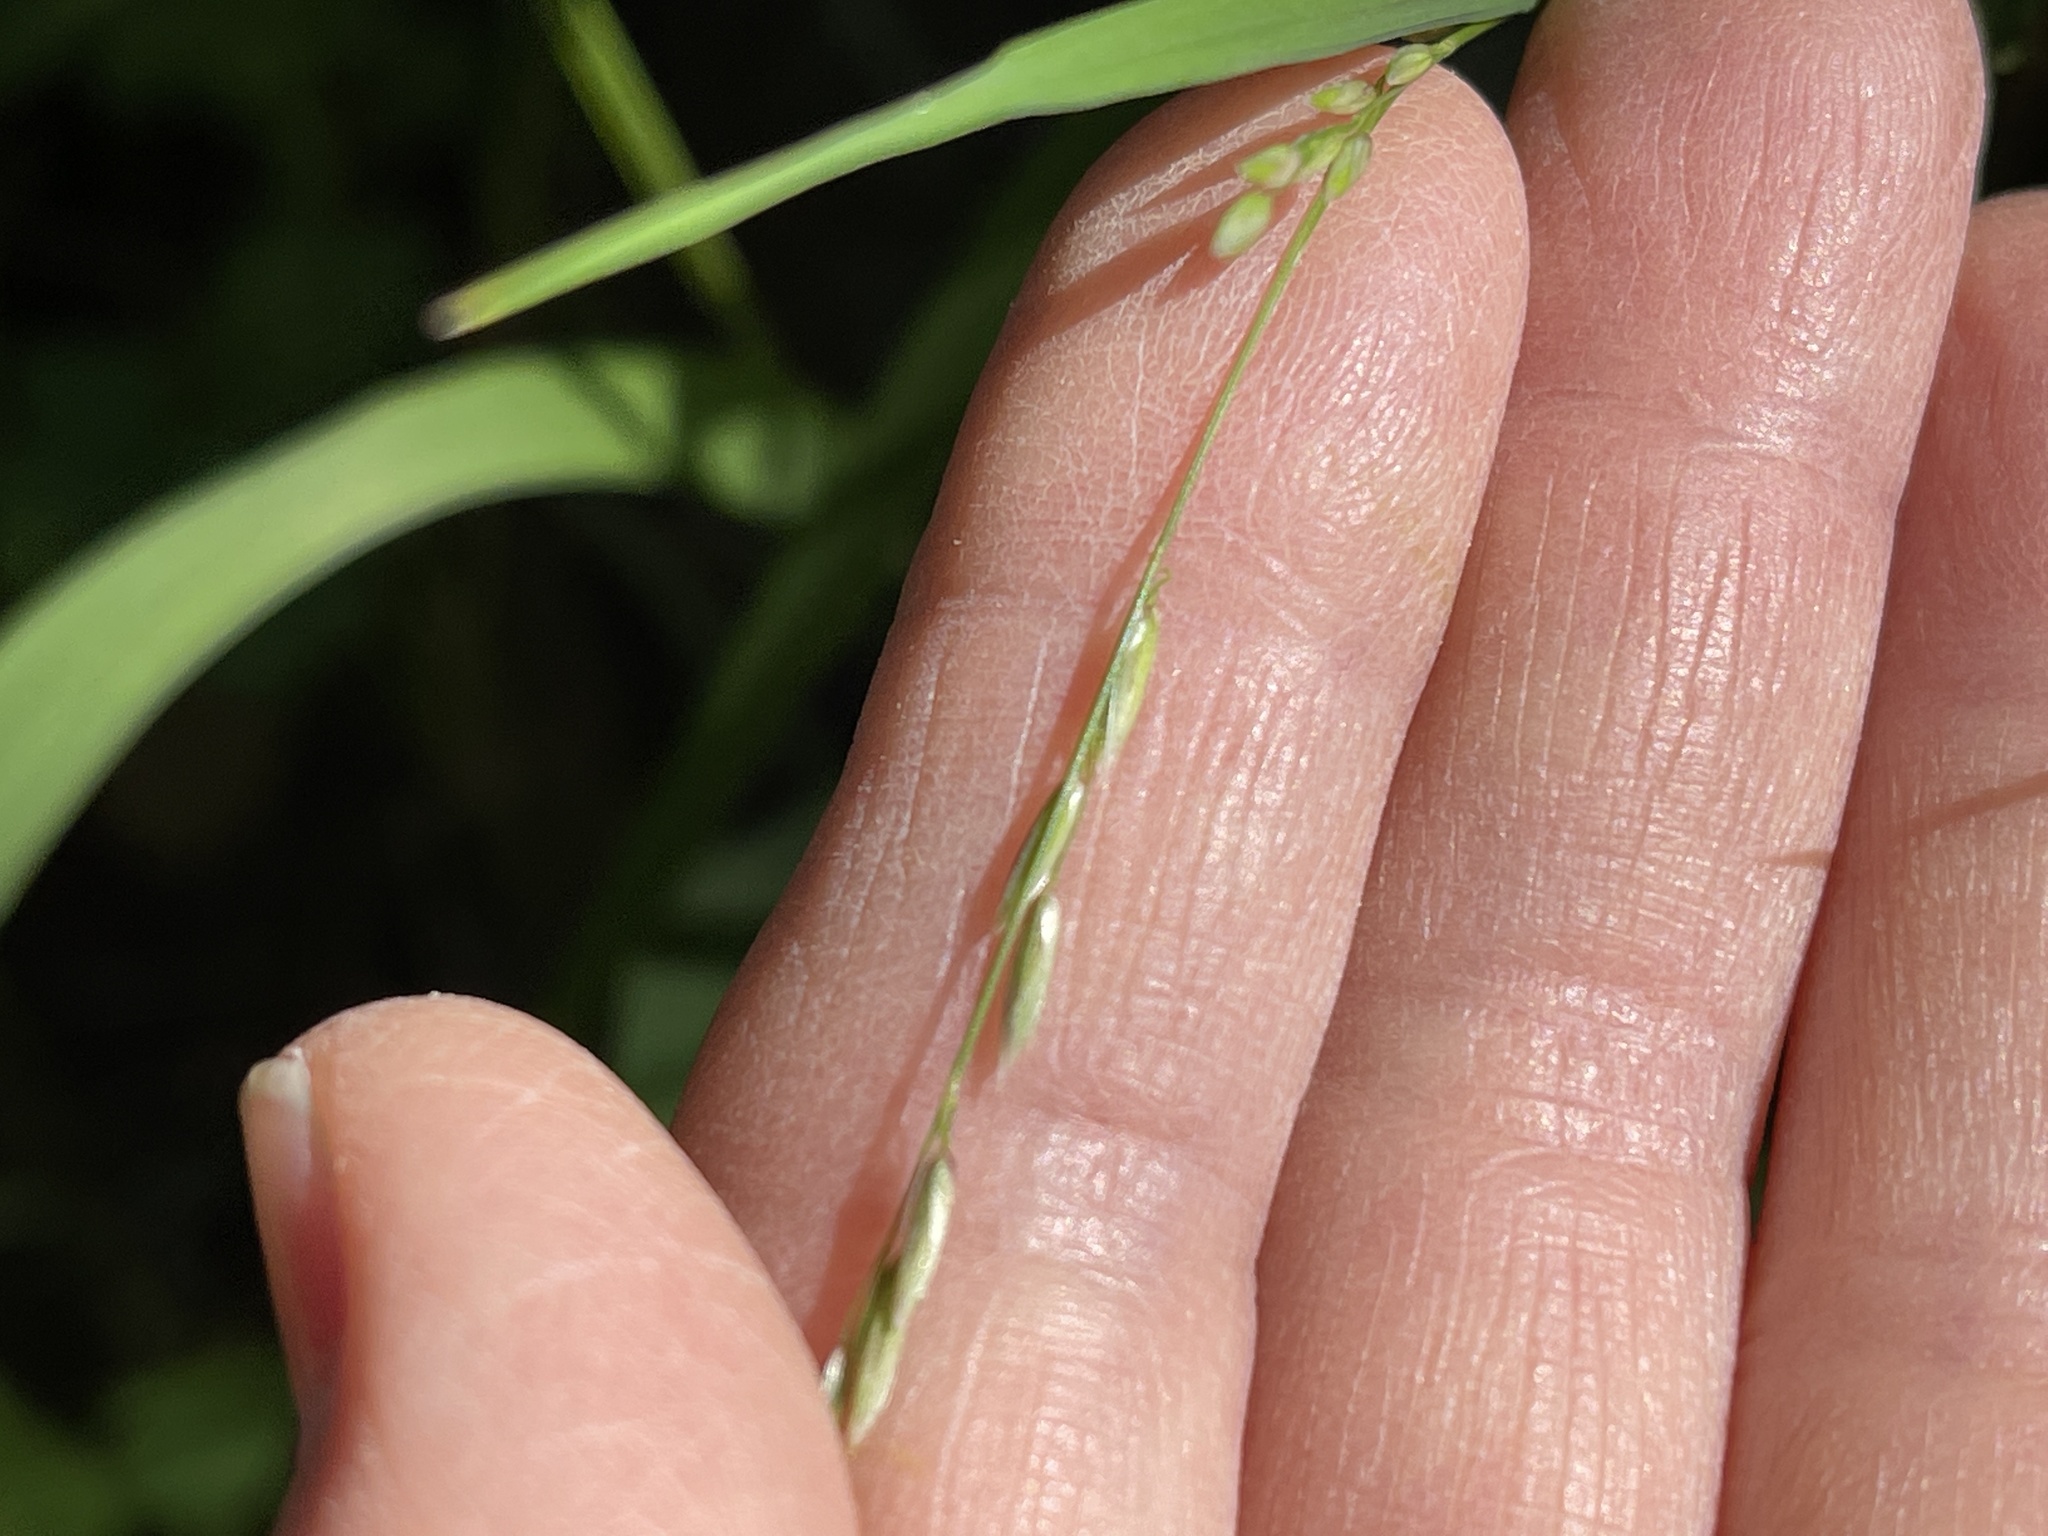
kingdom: Plantae
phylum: Tracheophyta
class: Liliopsida
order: Poales
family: Poaceae
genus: Melica
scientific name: Melica torreyana
